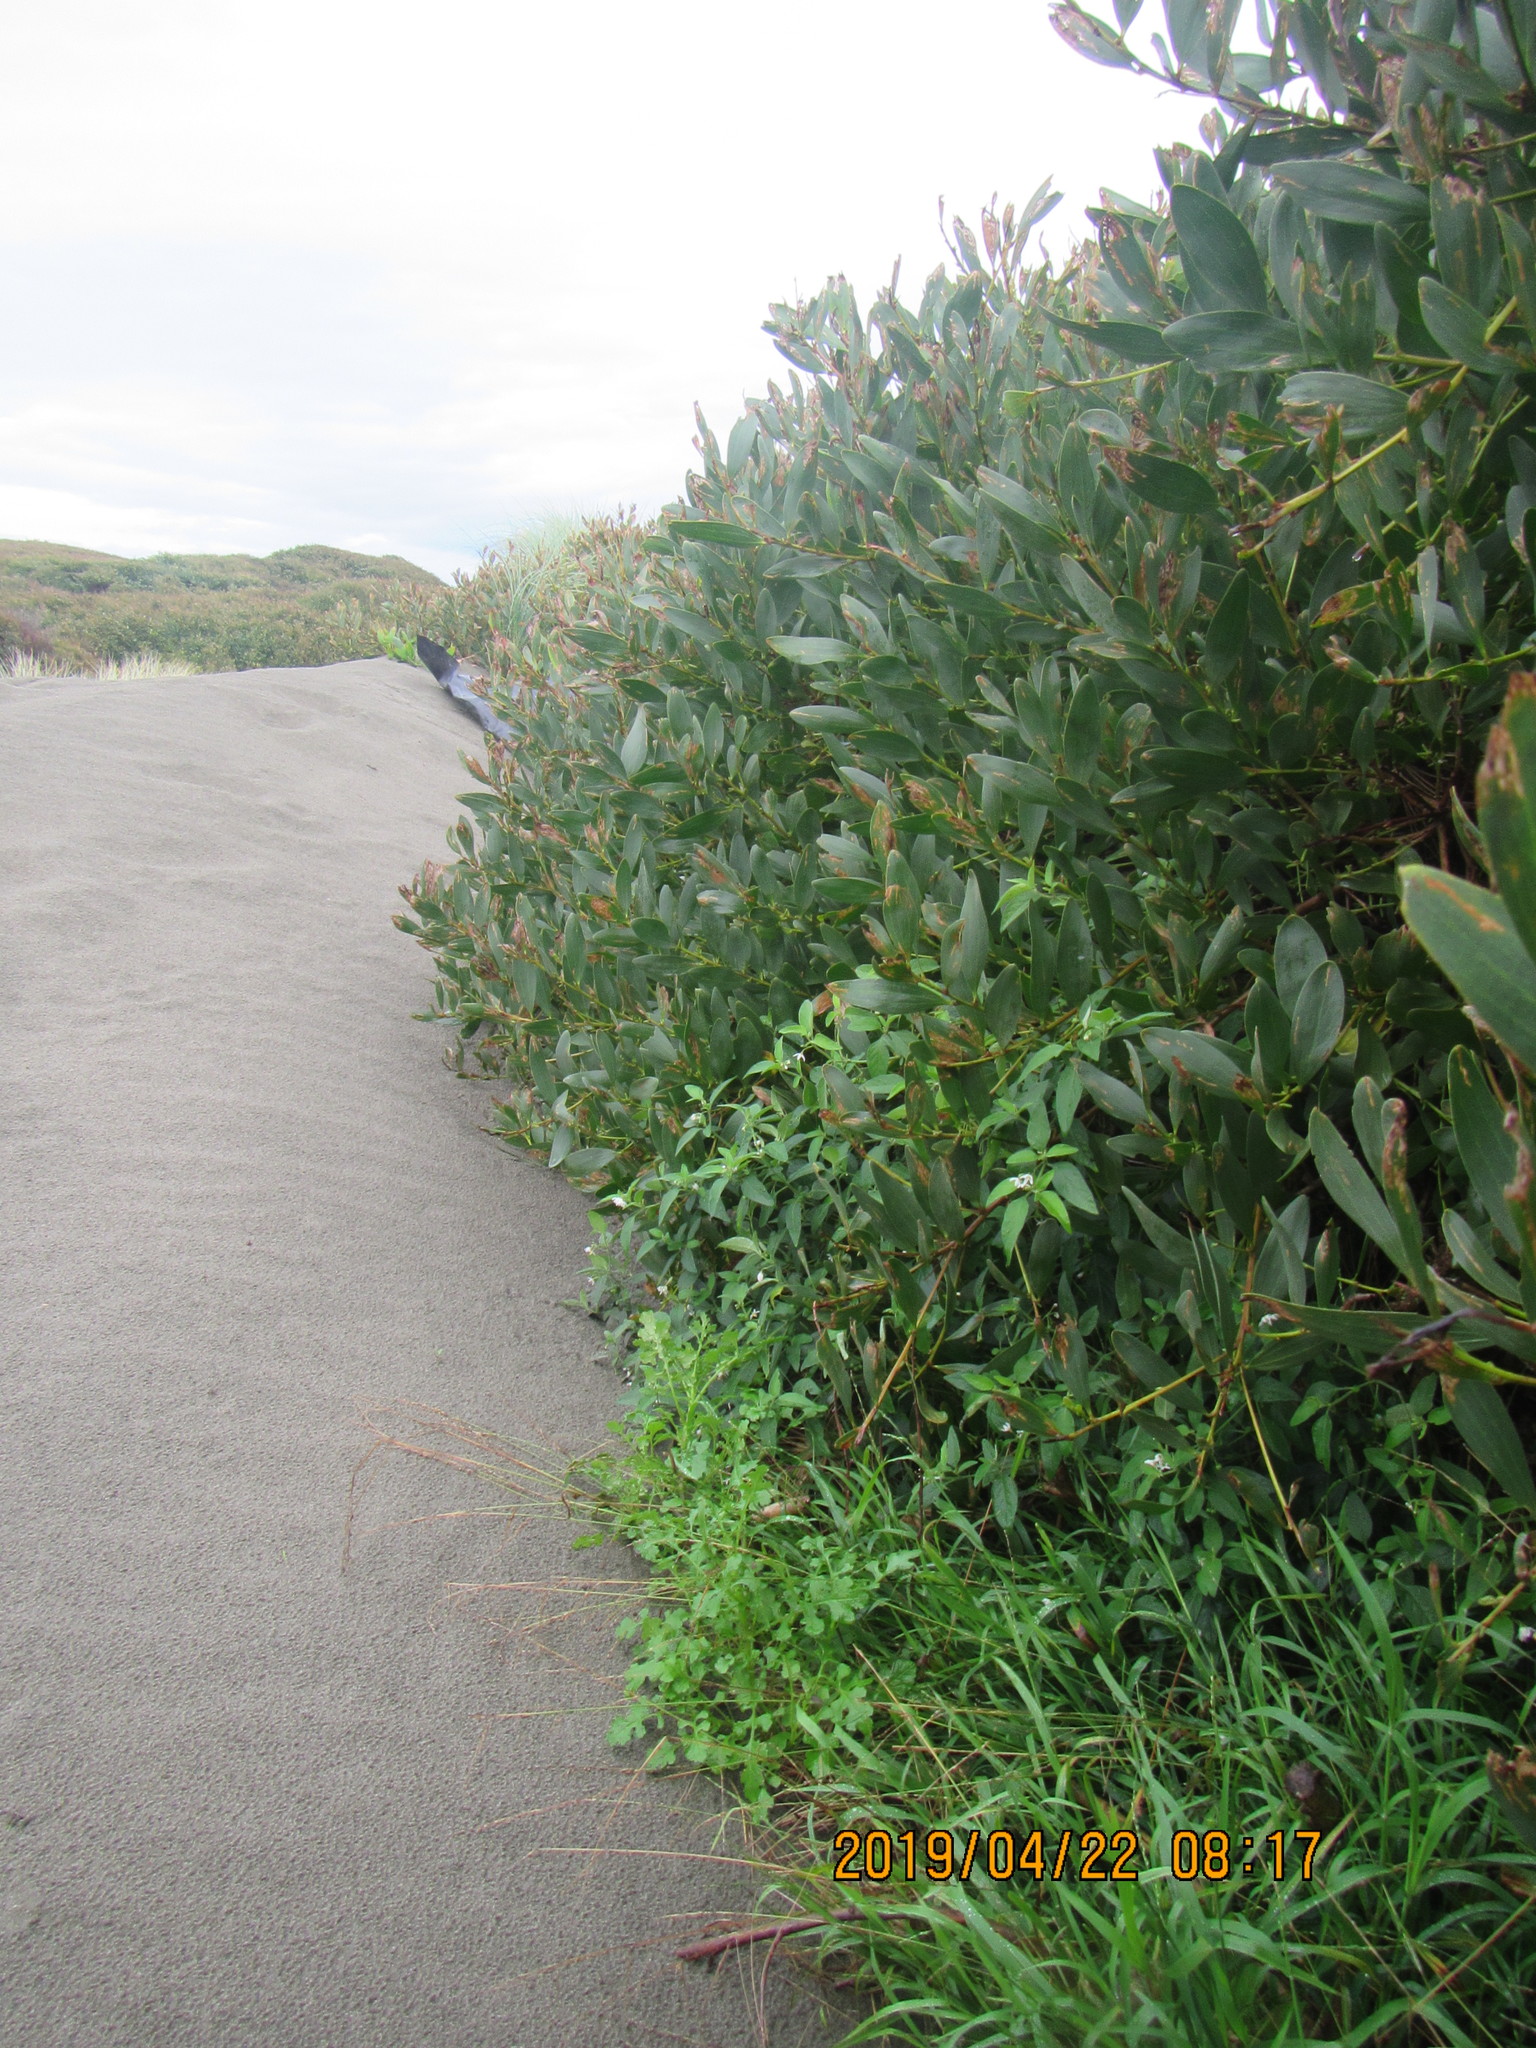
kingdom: Plantae
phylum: Tracheophyta
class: Magnoliopsida
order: Solanales
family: Solanaceae
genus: Solanum
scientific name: Solanum chenopodioides
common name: Tall nightshade
